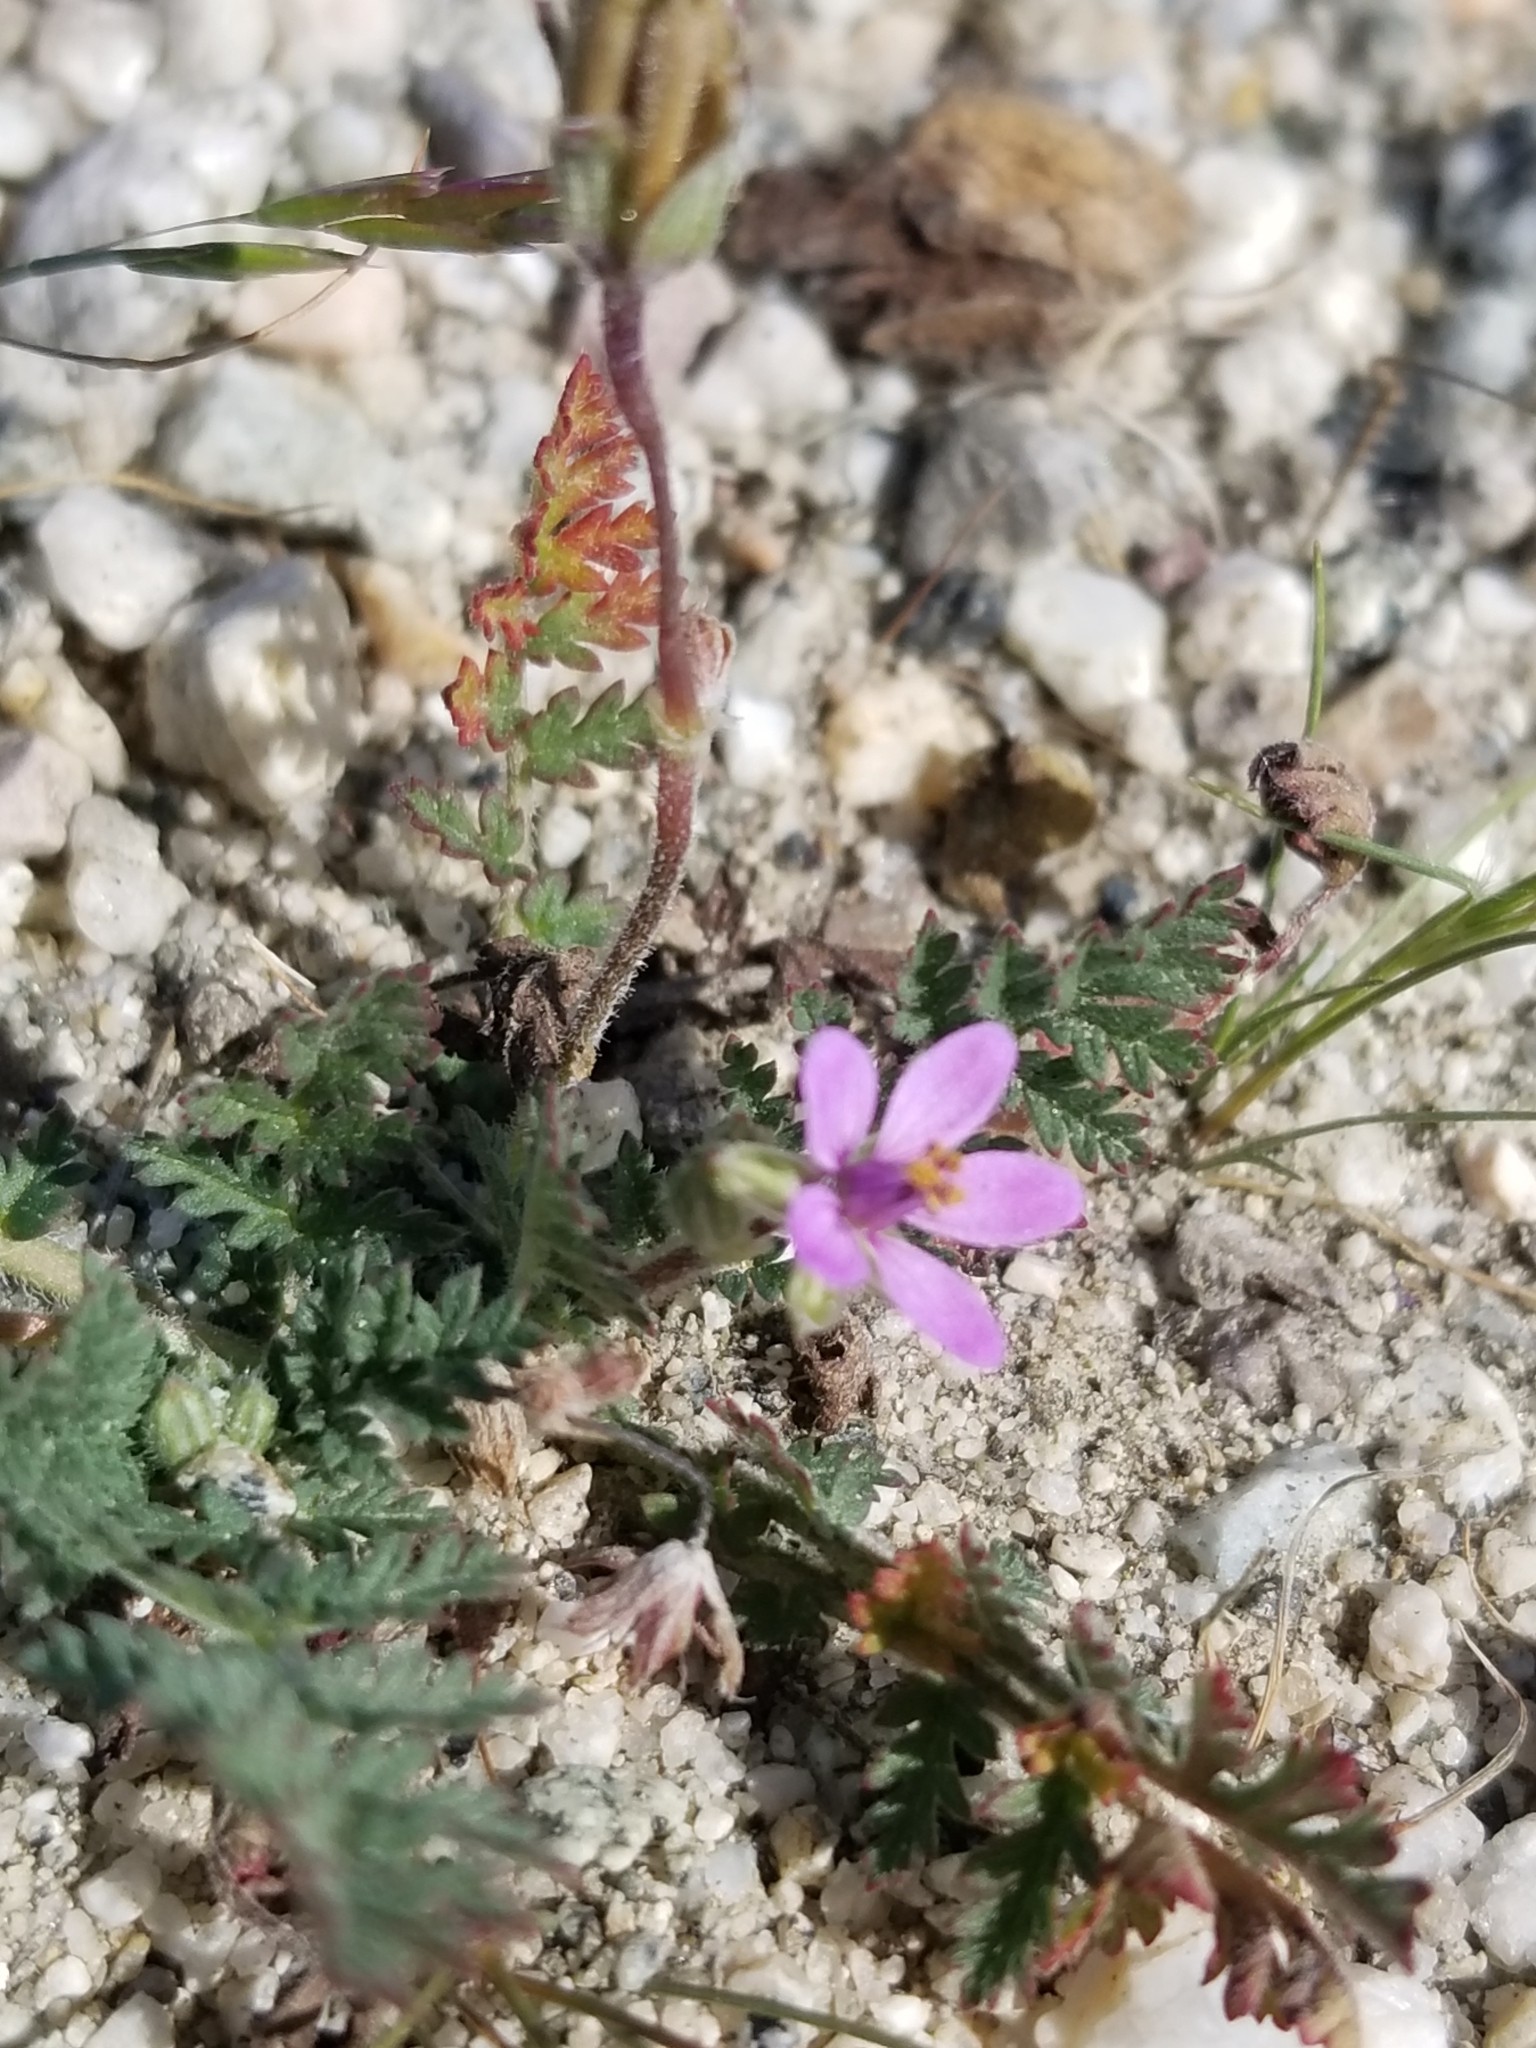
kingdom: Plantae
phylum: Tracheophyta
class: Magnoliopsida
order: Geraniales
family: Geraniaceae
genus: Erodium
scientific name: Erodium cicutarium
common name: Common stork's-bill
